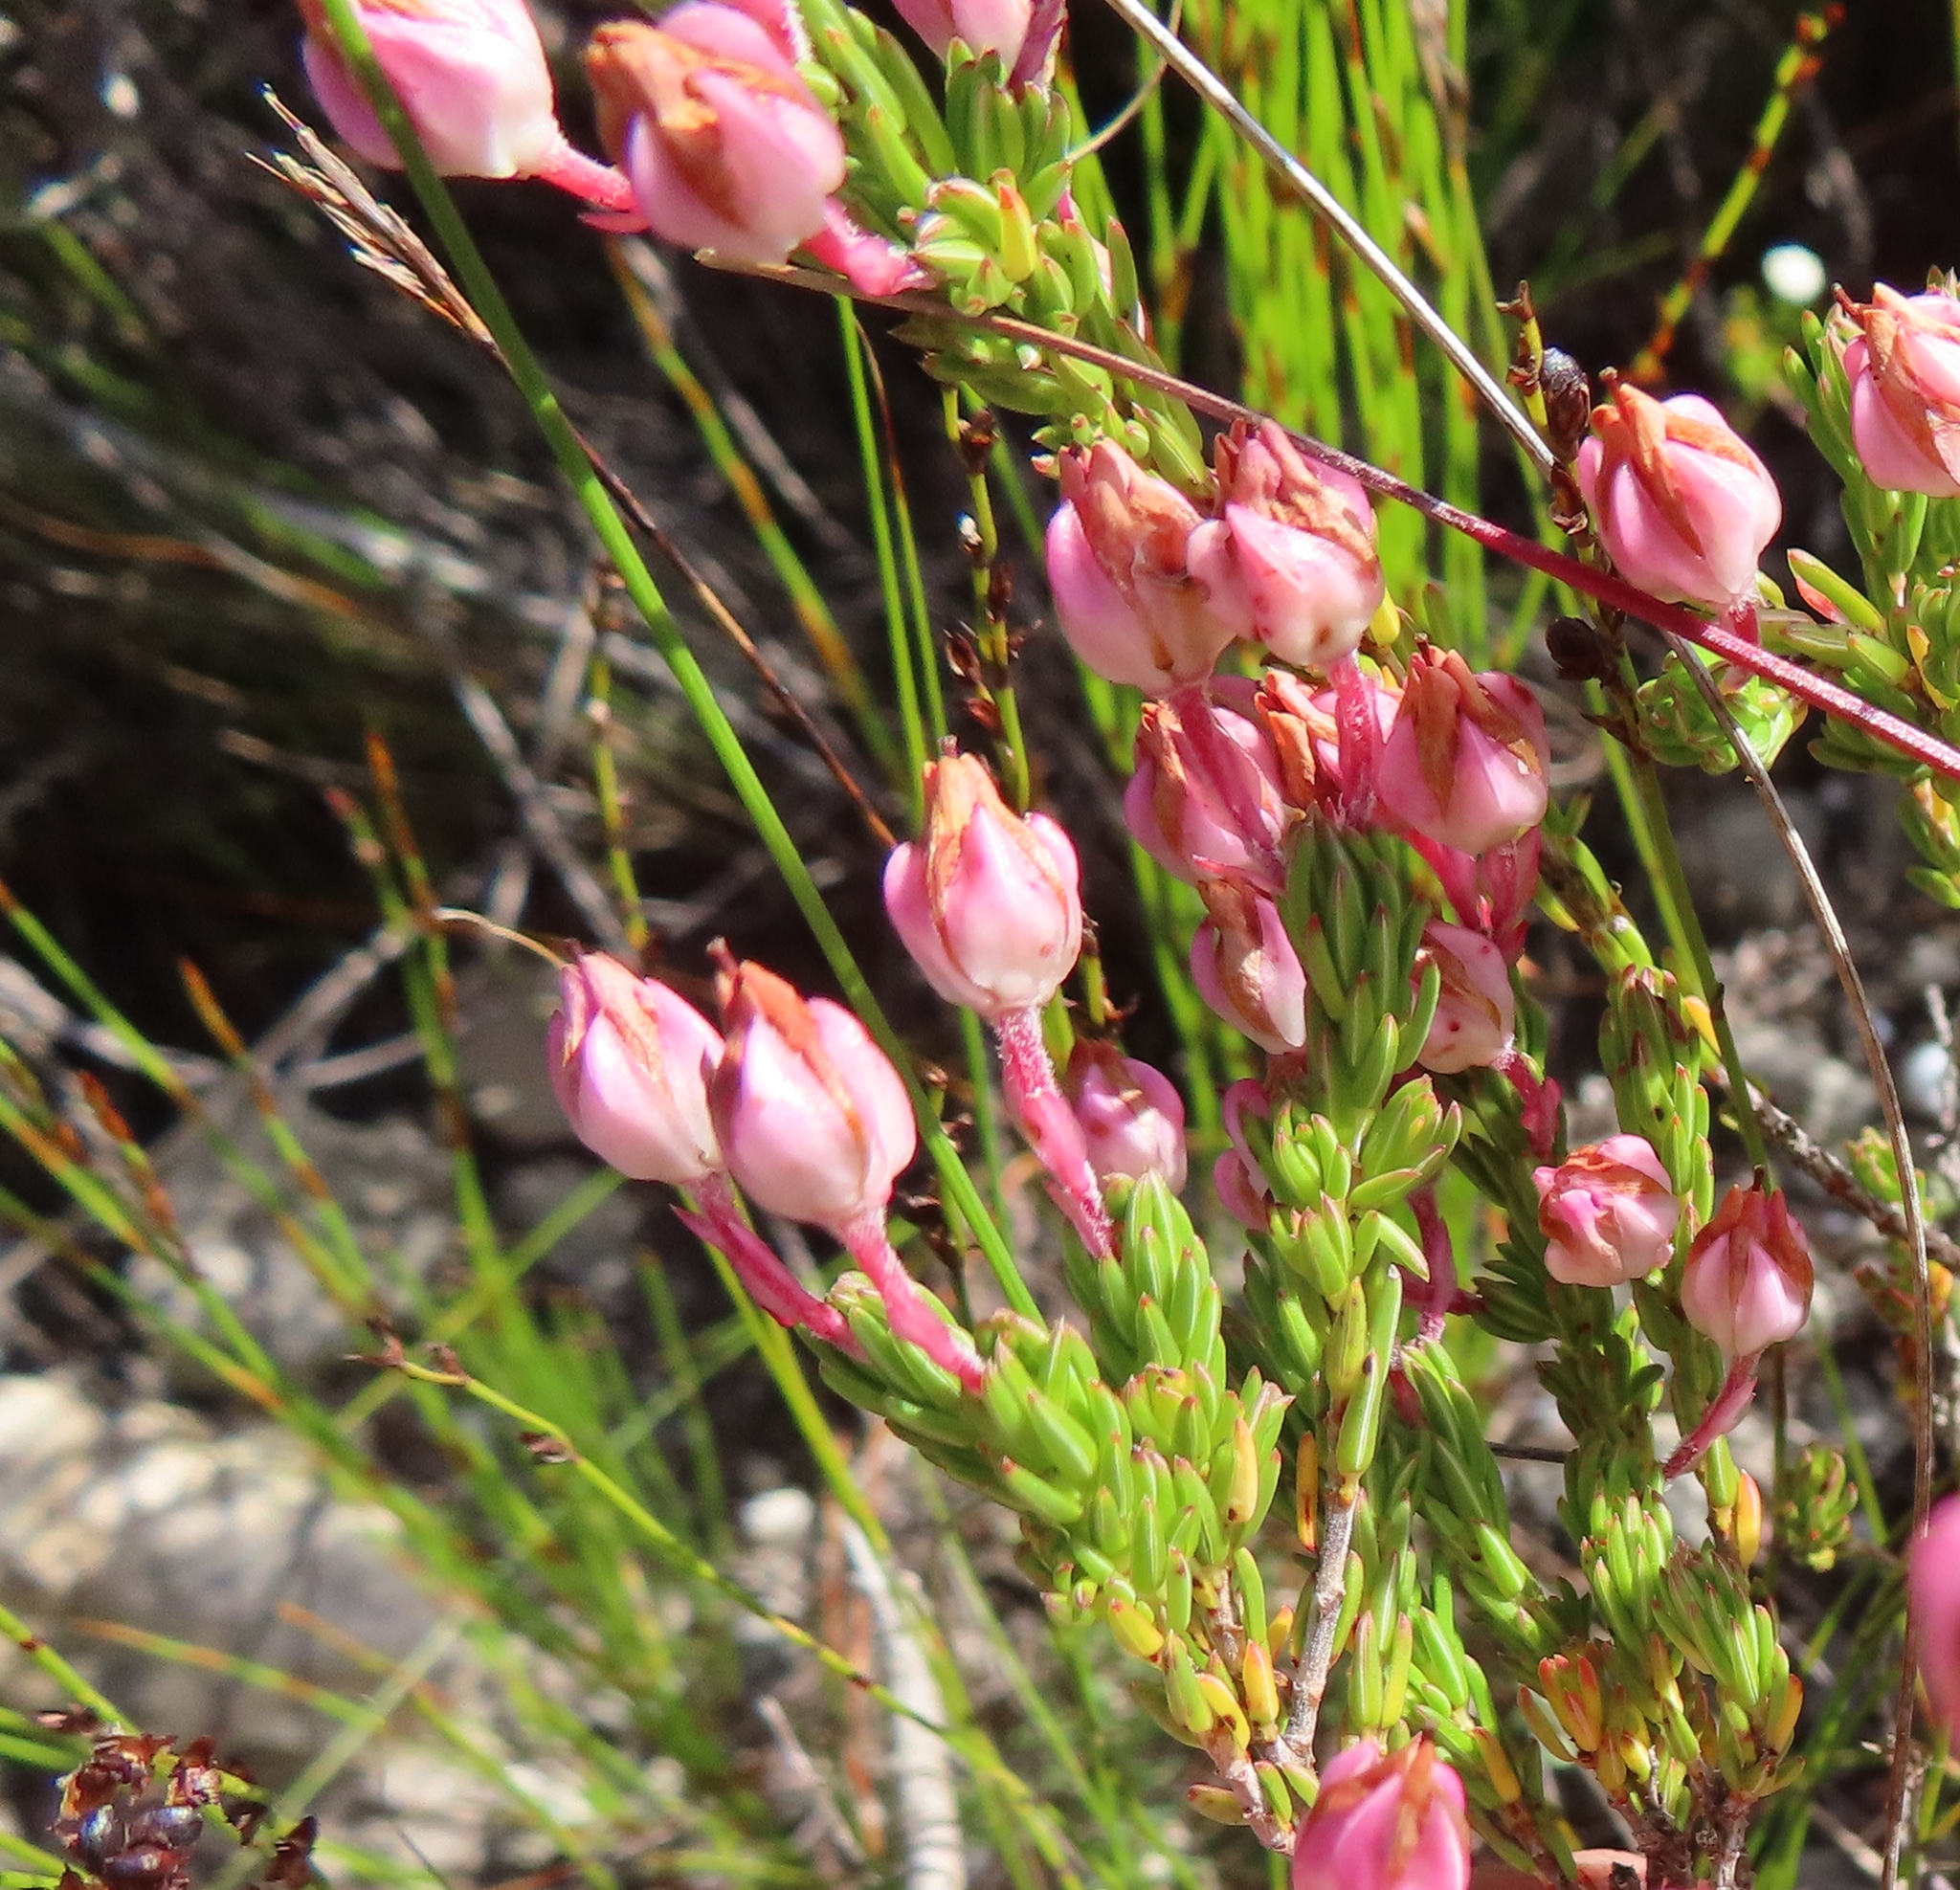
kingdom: Plantae
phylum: Tracheophyta
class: Magnoliopsida
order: Ericales
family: Ericaceae
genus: Erica
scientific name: Erica excavata
